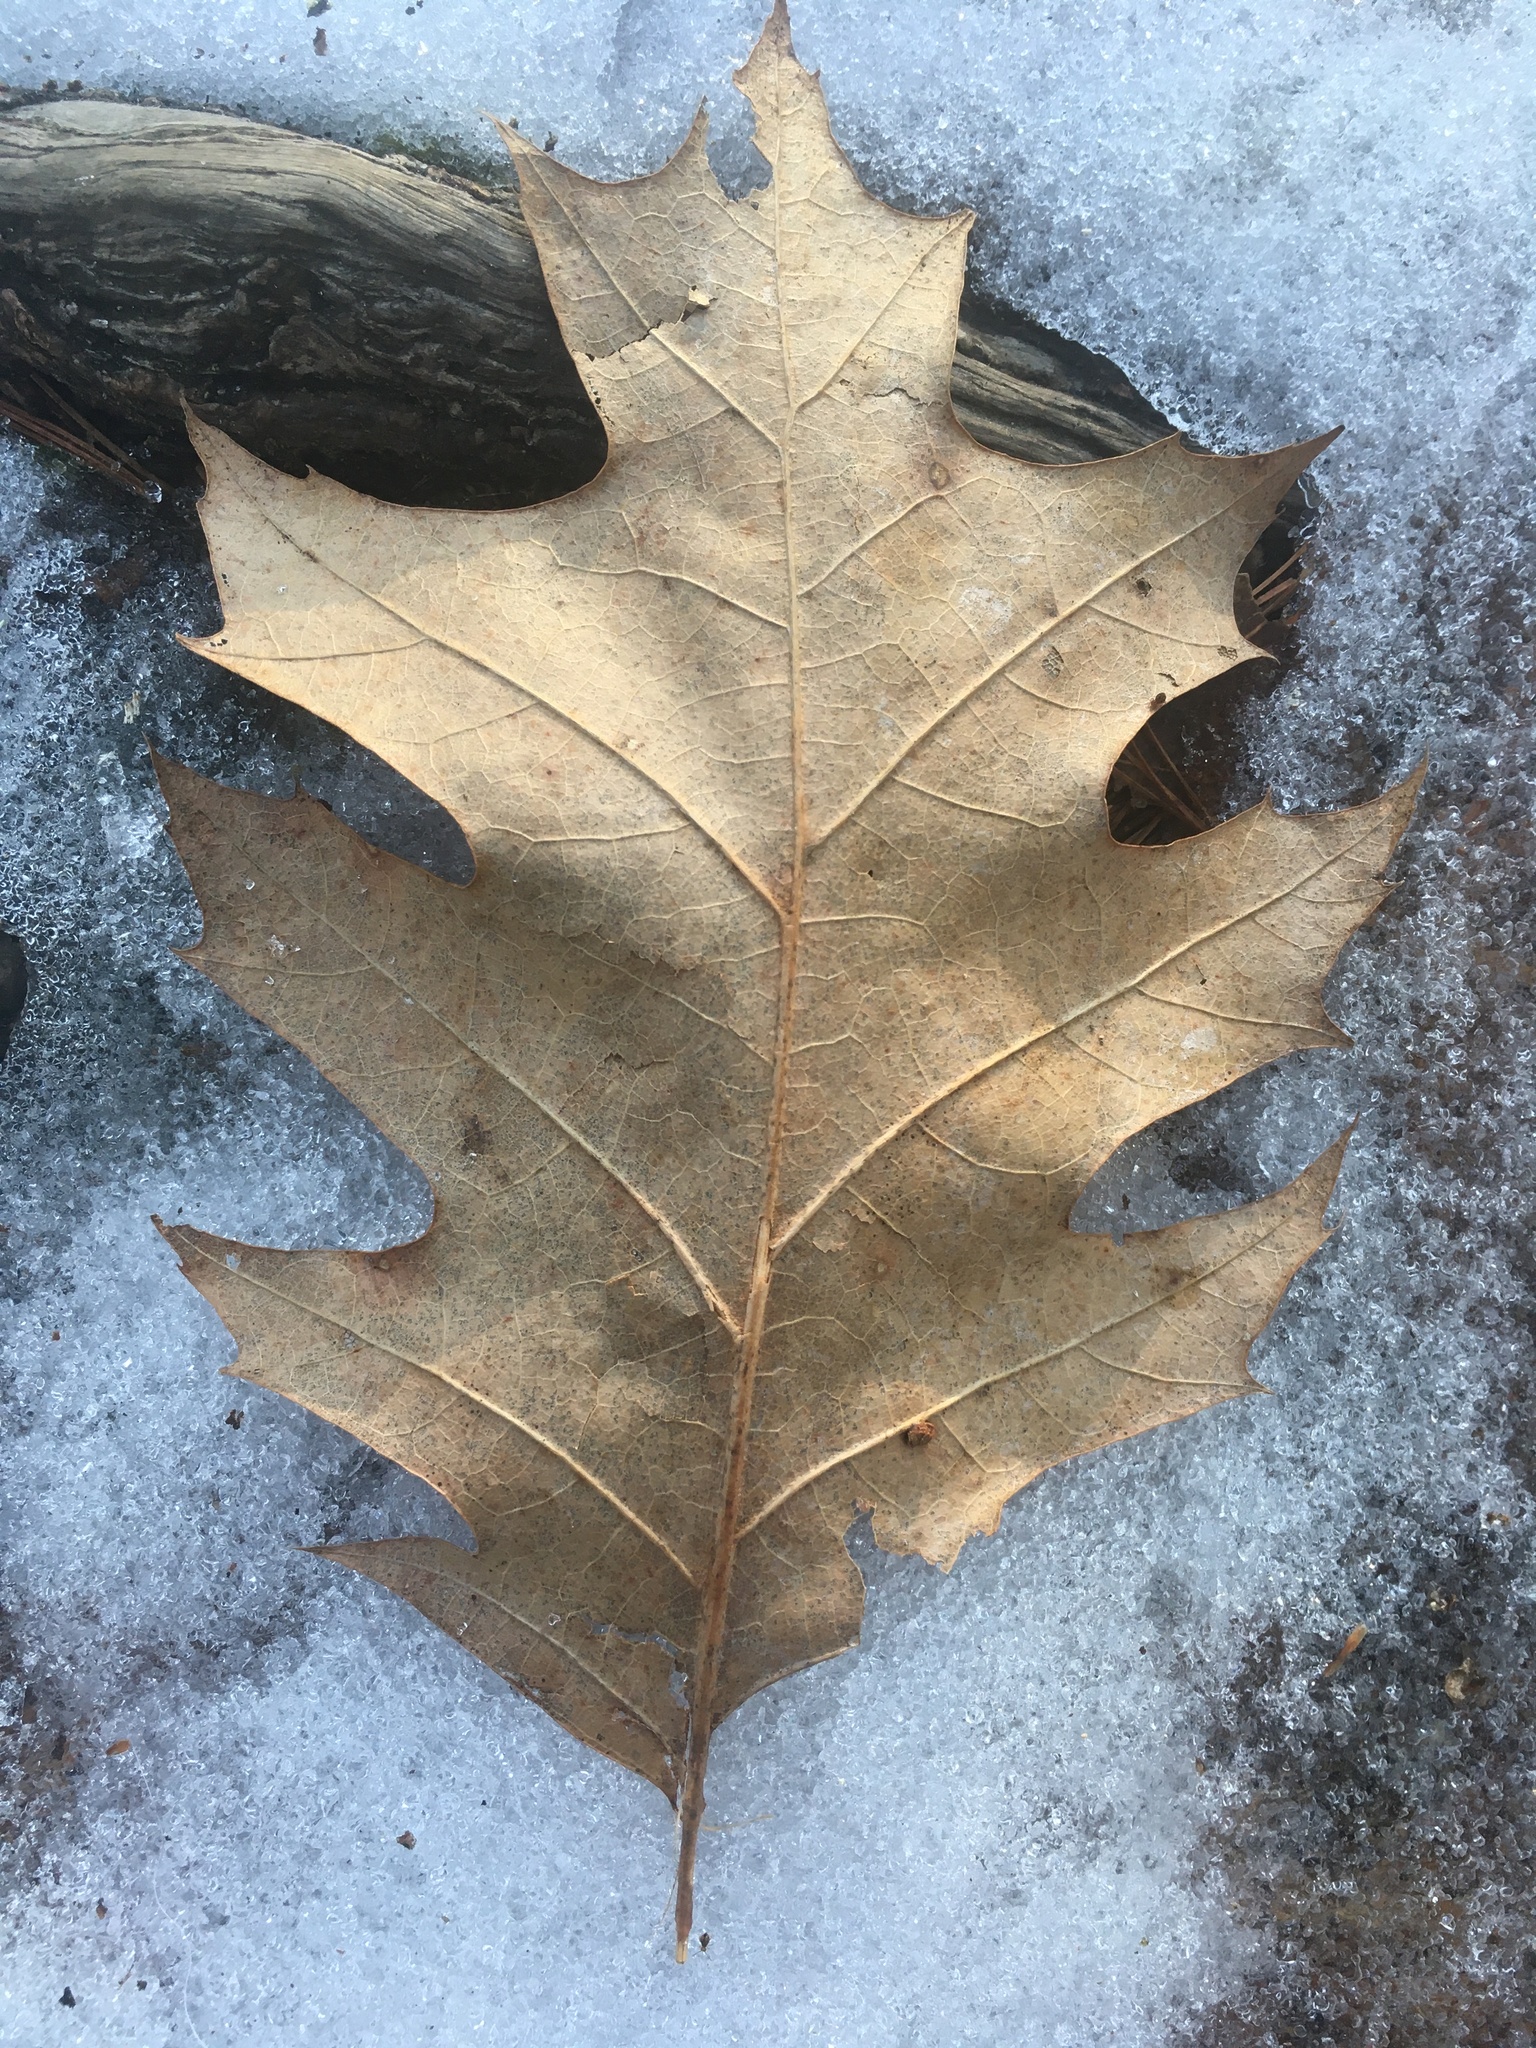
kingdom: Plantae
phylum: Tracheophyta
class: Magnoliopsida
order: Fagales
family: Fagaceae
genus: Quercus
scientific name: Quercus rubra
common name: Red oak
